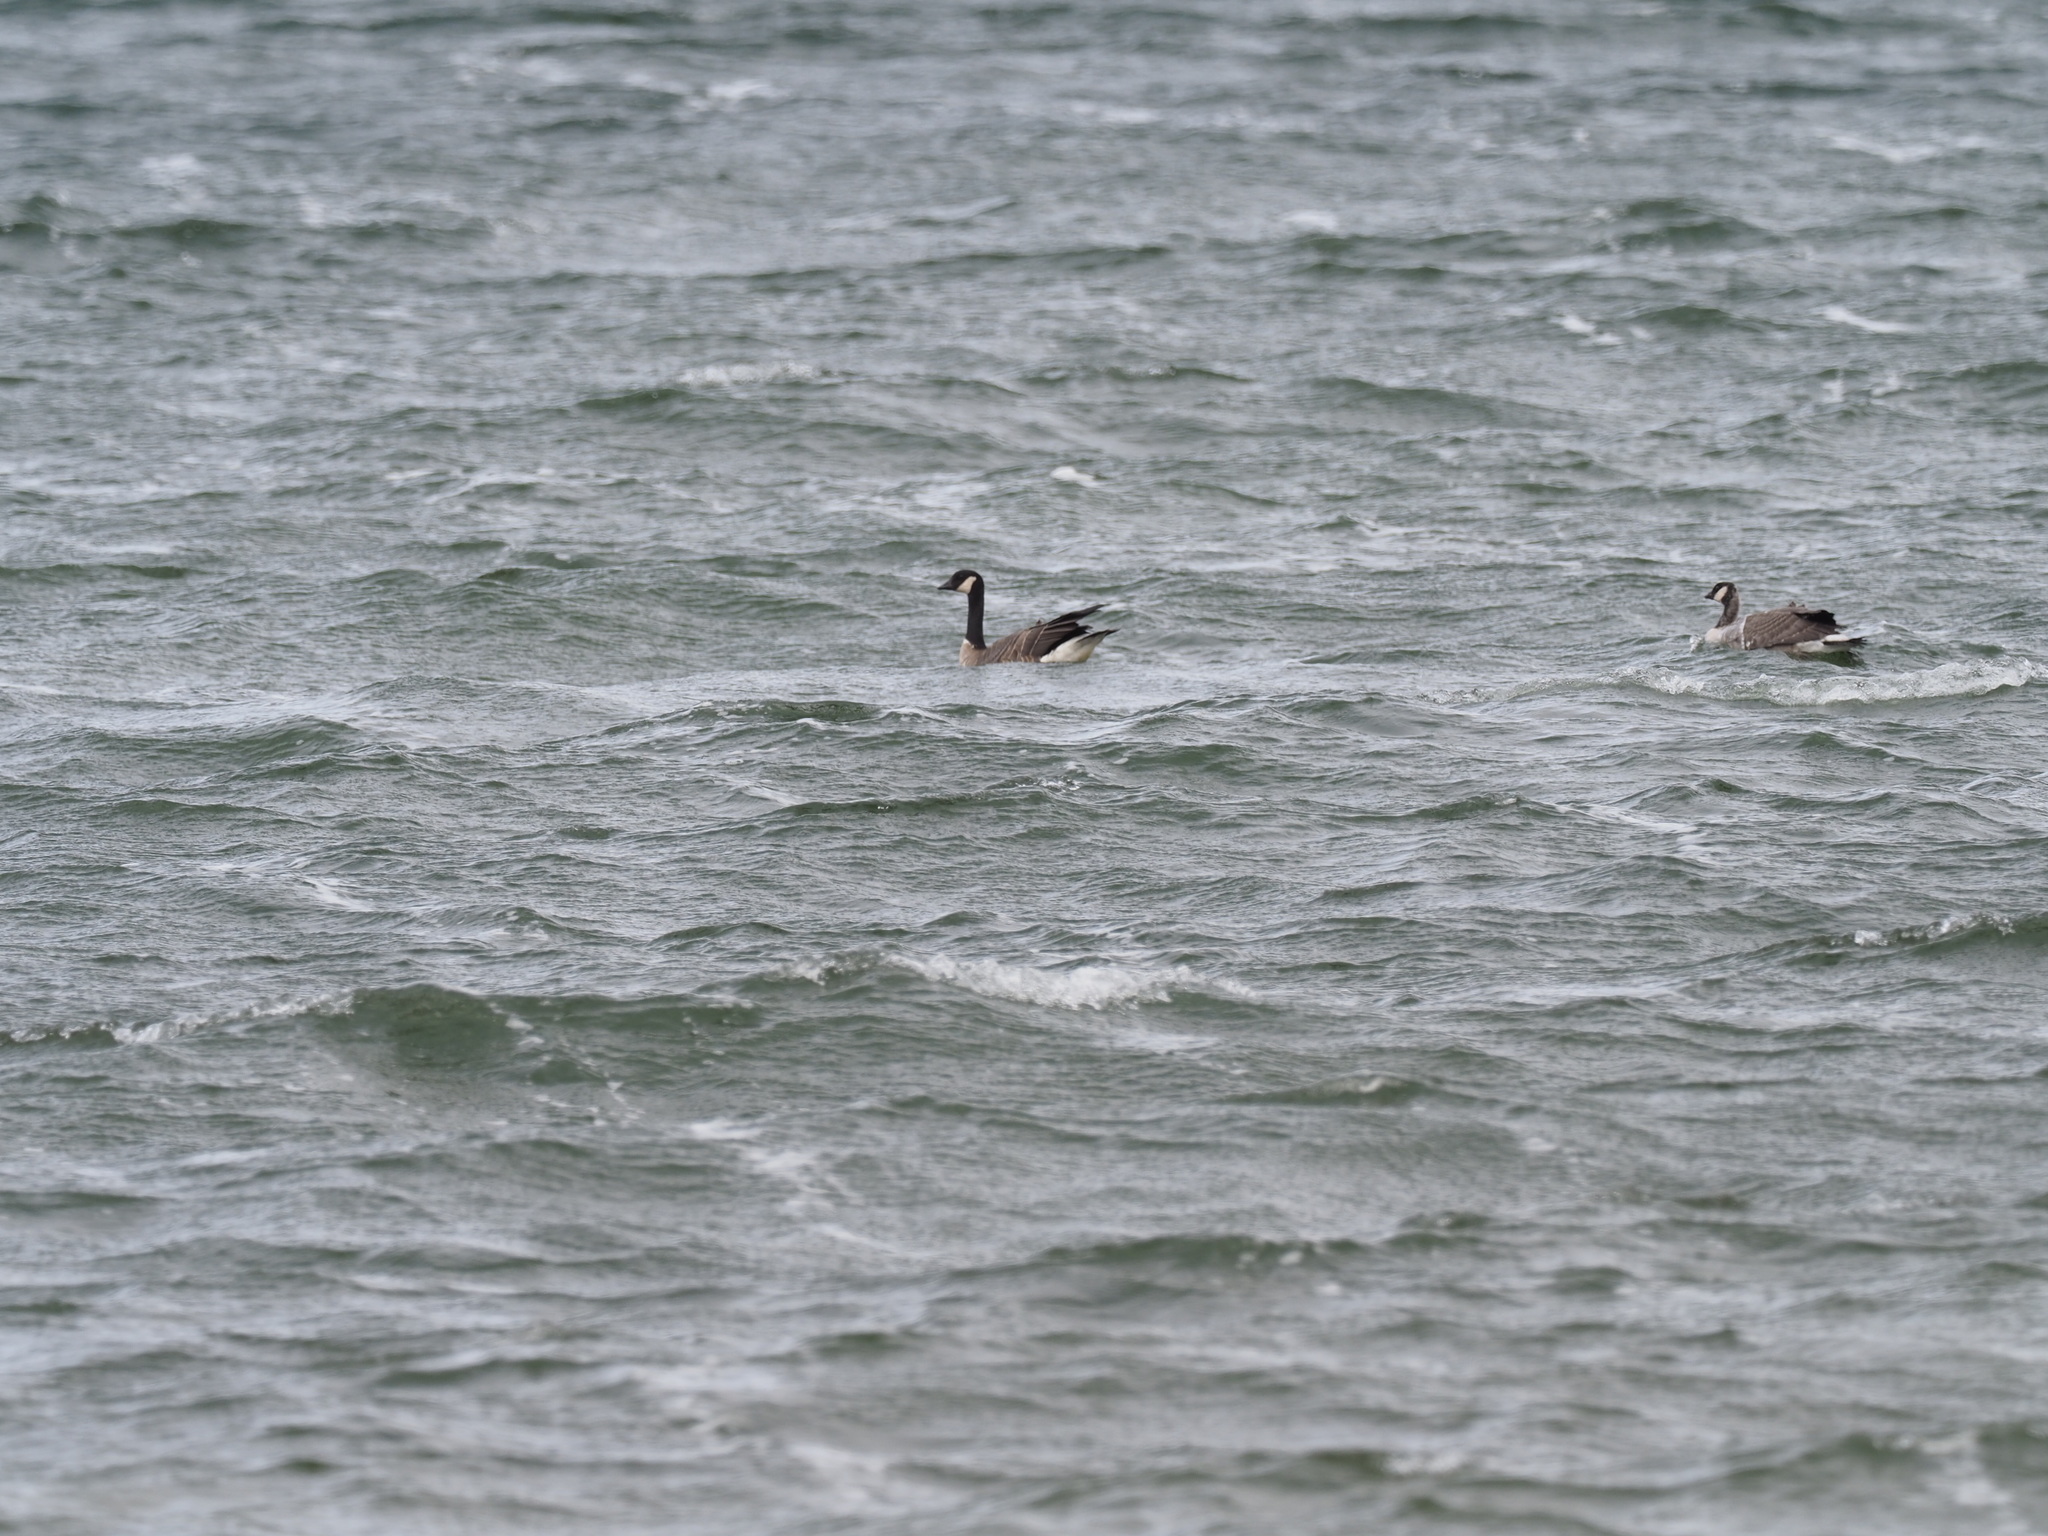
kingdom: Animalia
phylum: Chordata
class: Aves
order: Anseriformes
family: Anatidae
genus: Branta
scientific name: Branta hutchinsii
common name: Cackling goose
